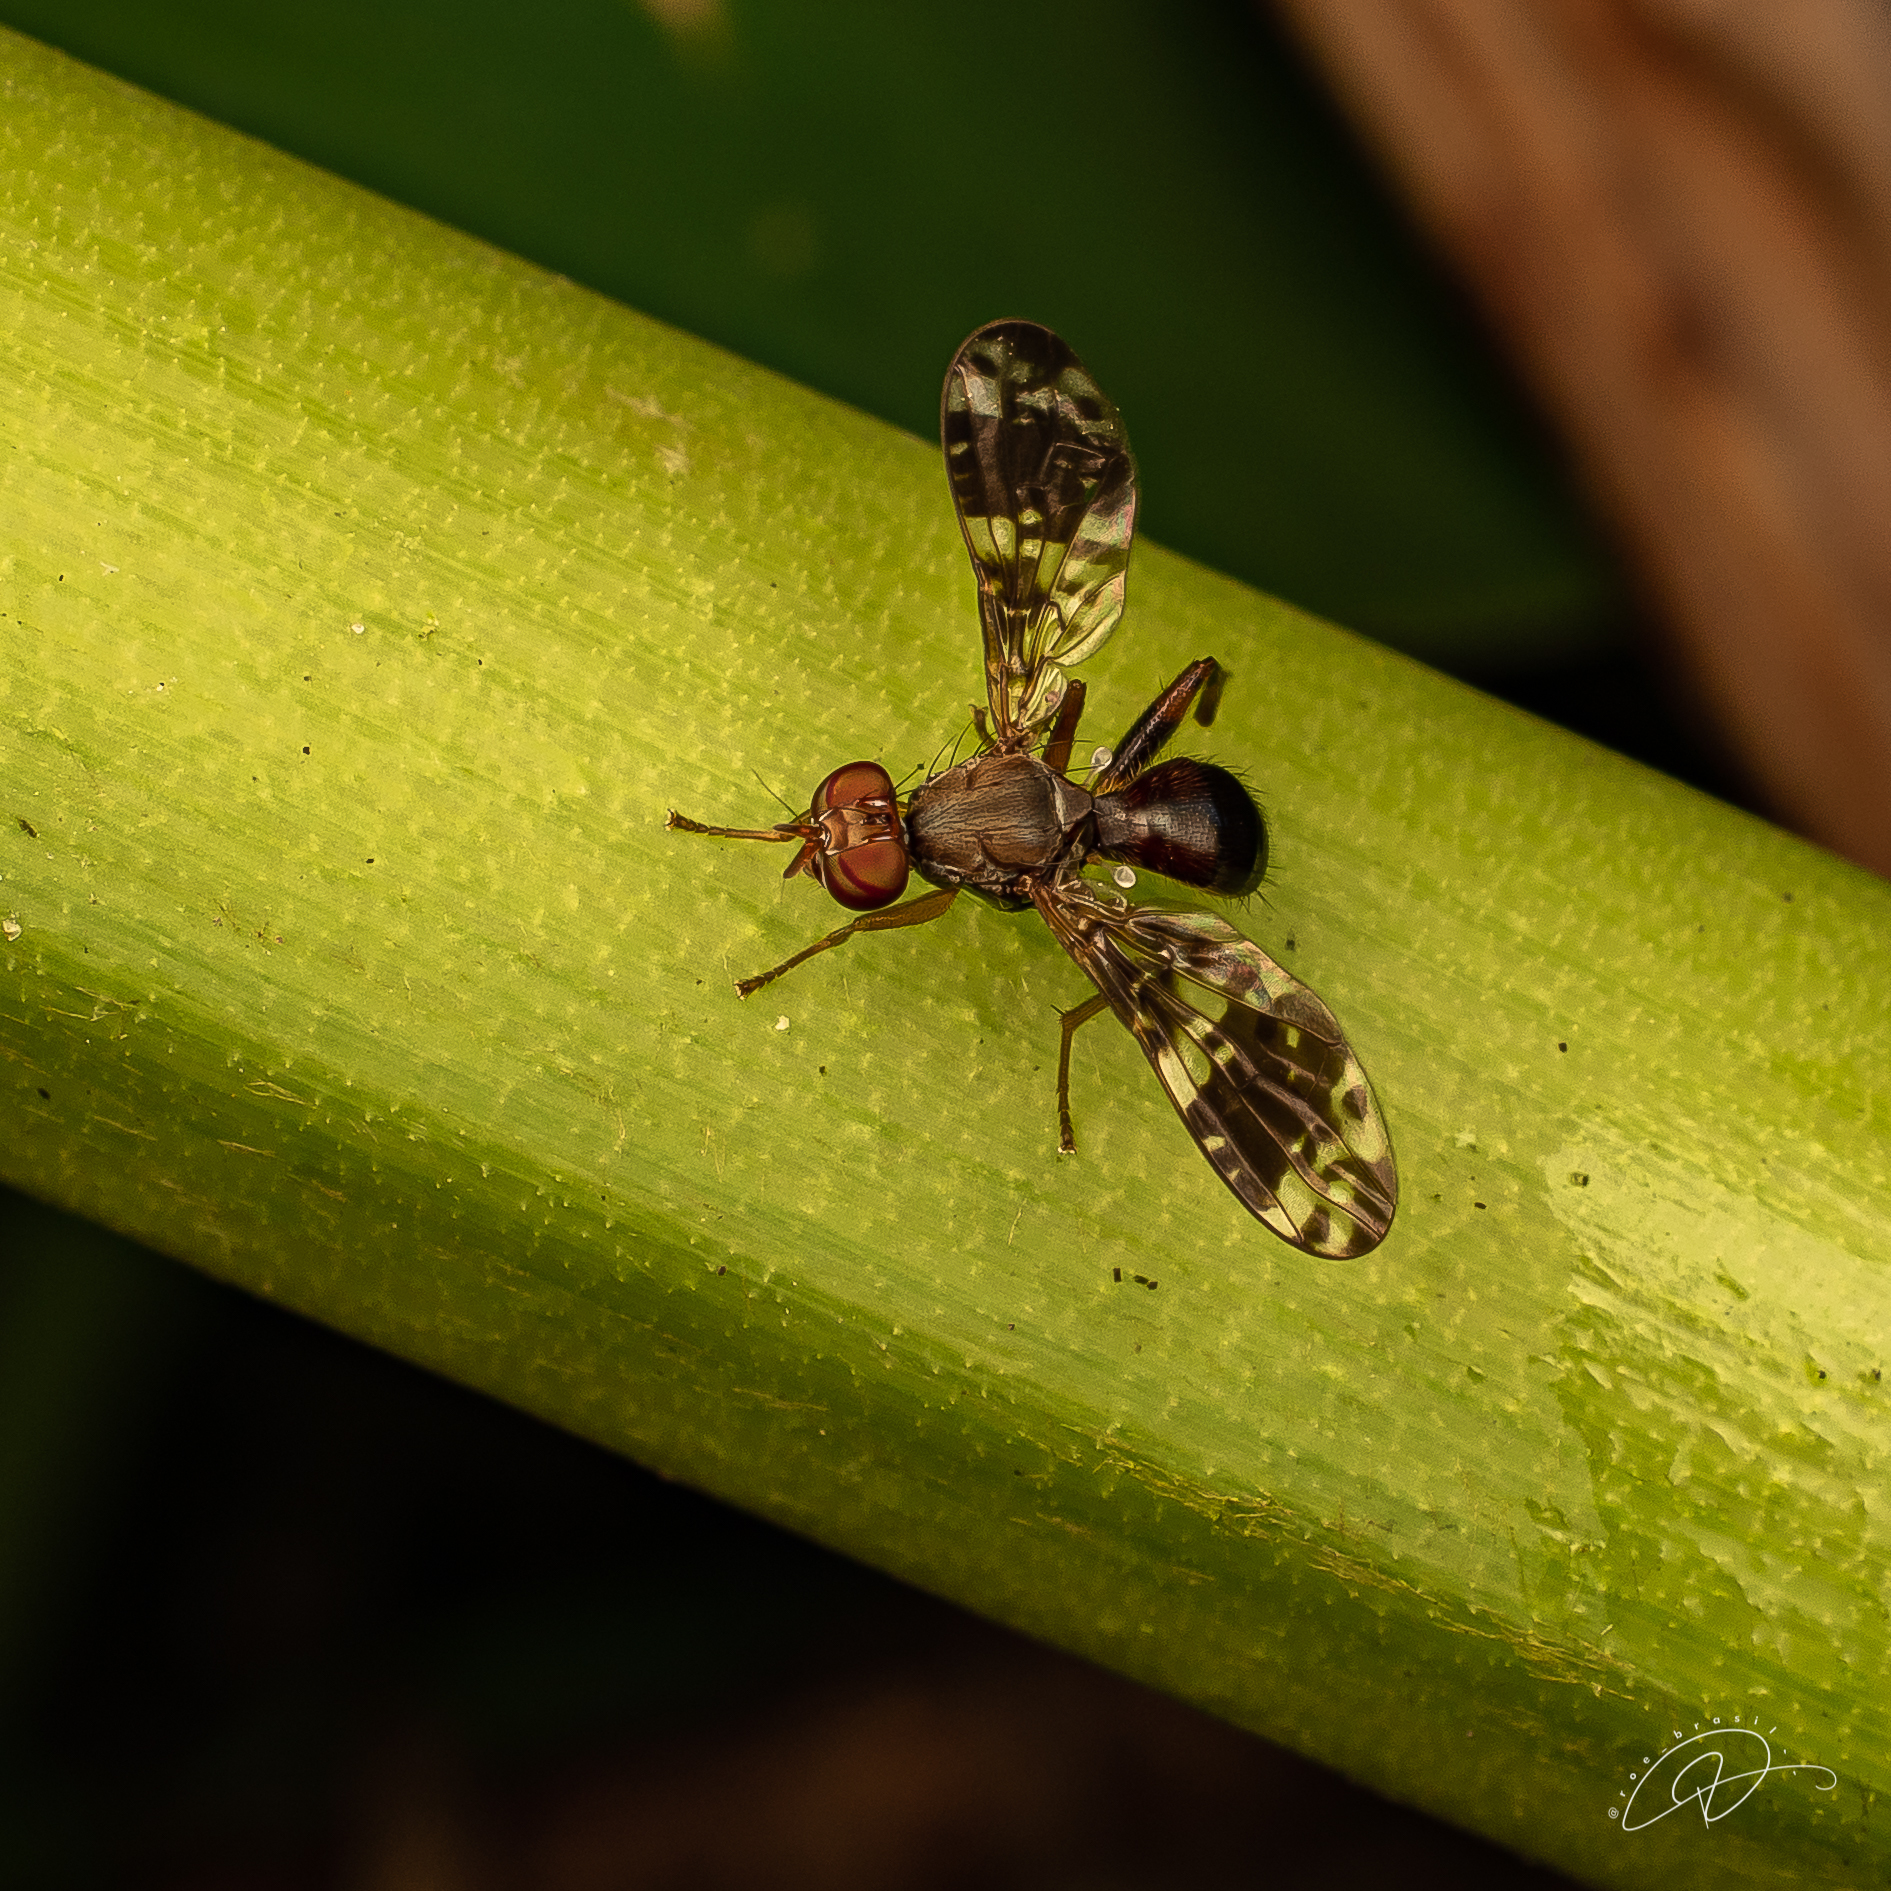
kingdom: Animalia
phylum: Arthropoda
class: Insecta
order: Diptera
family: Richardiidae
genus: Richardia
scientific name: Richardia tephritina
